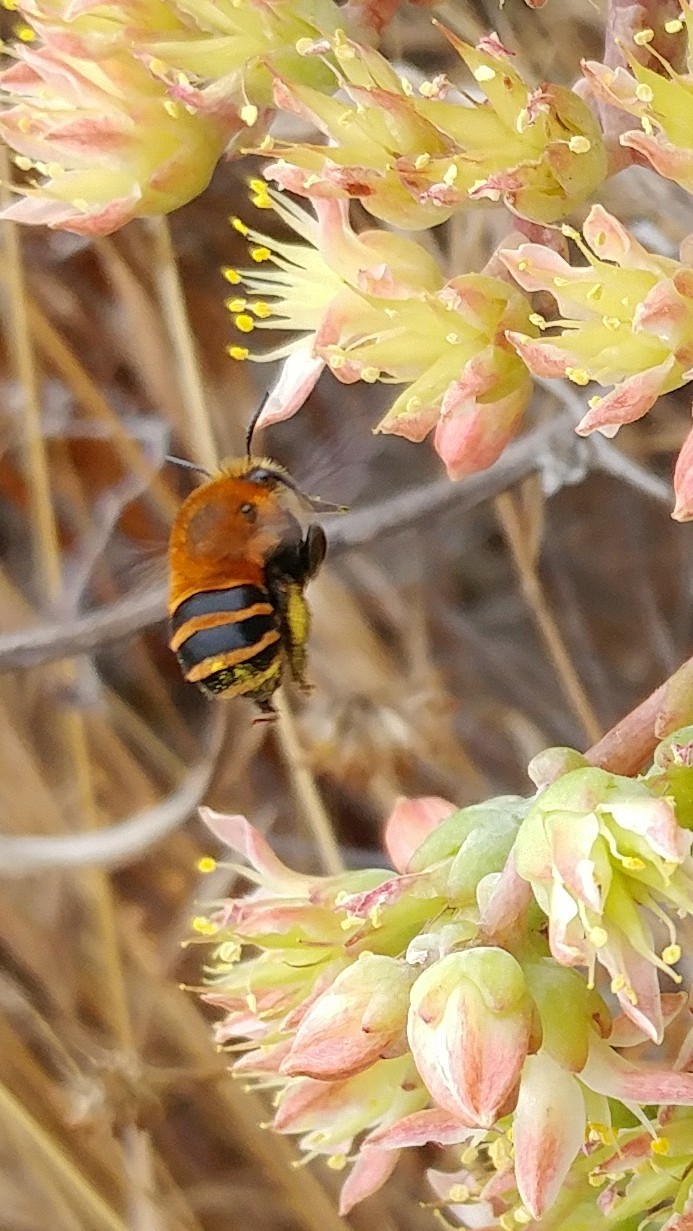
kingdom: Animalia
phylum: Arthropoda
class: Insecta
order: Hymenoptera
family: Apidae
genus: Anthophora
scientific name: Anthophora urbana
